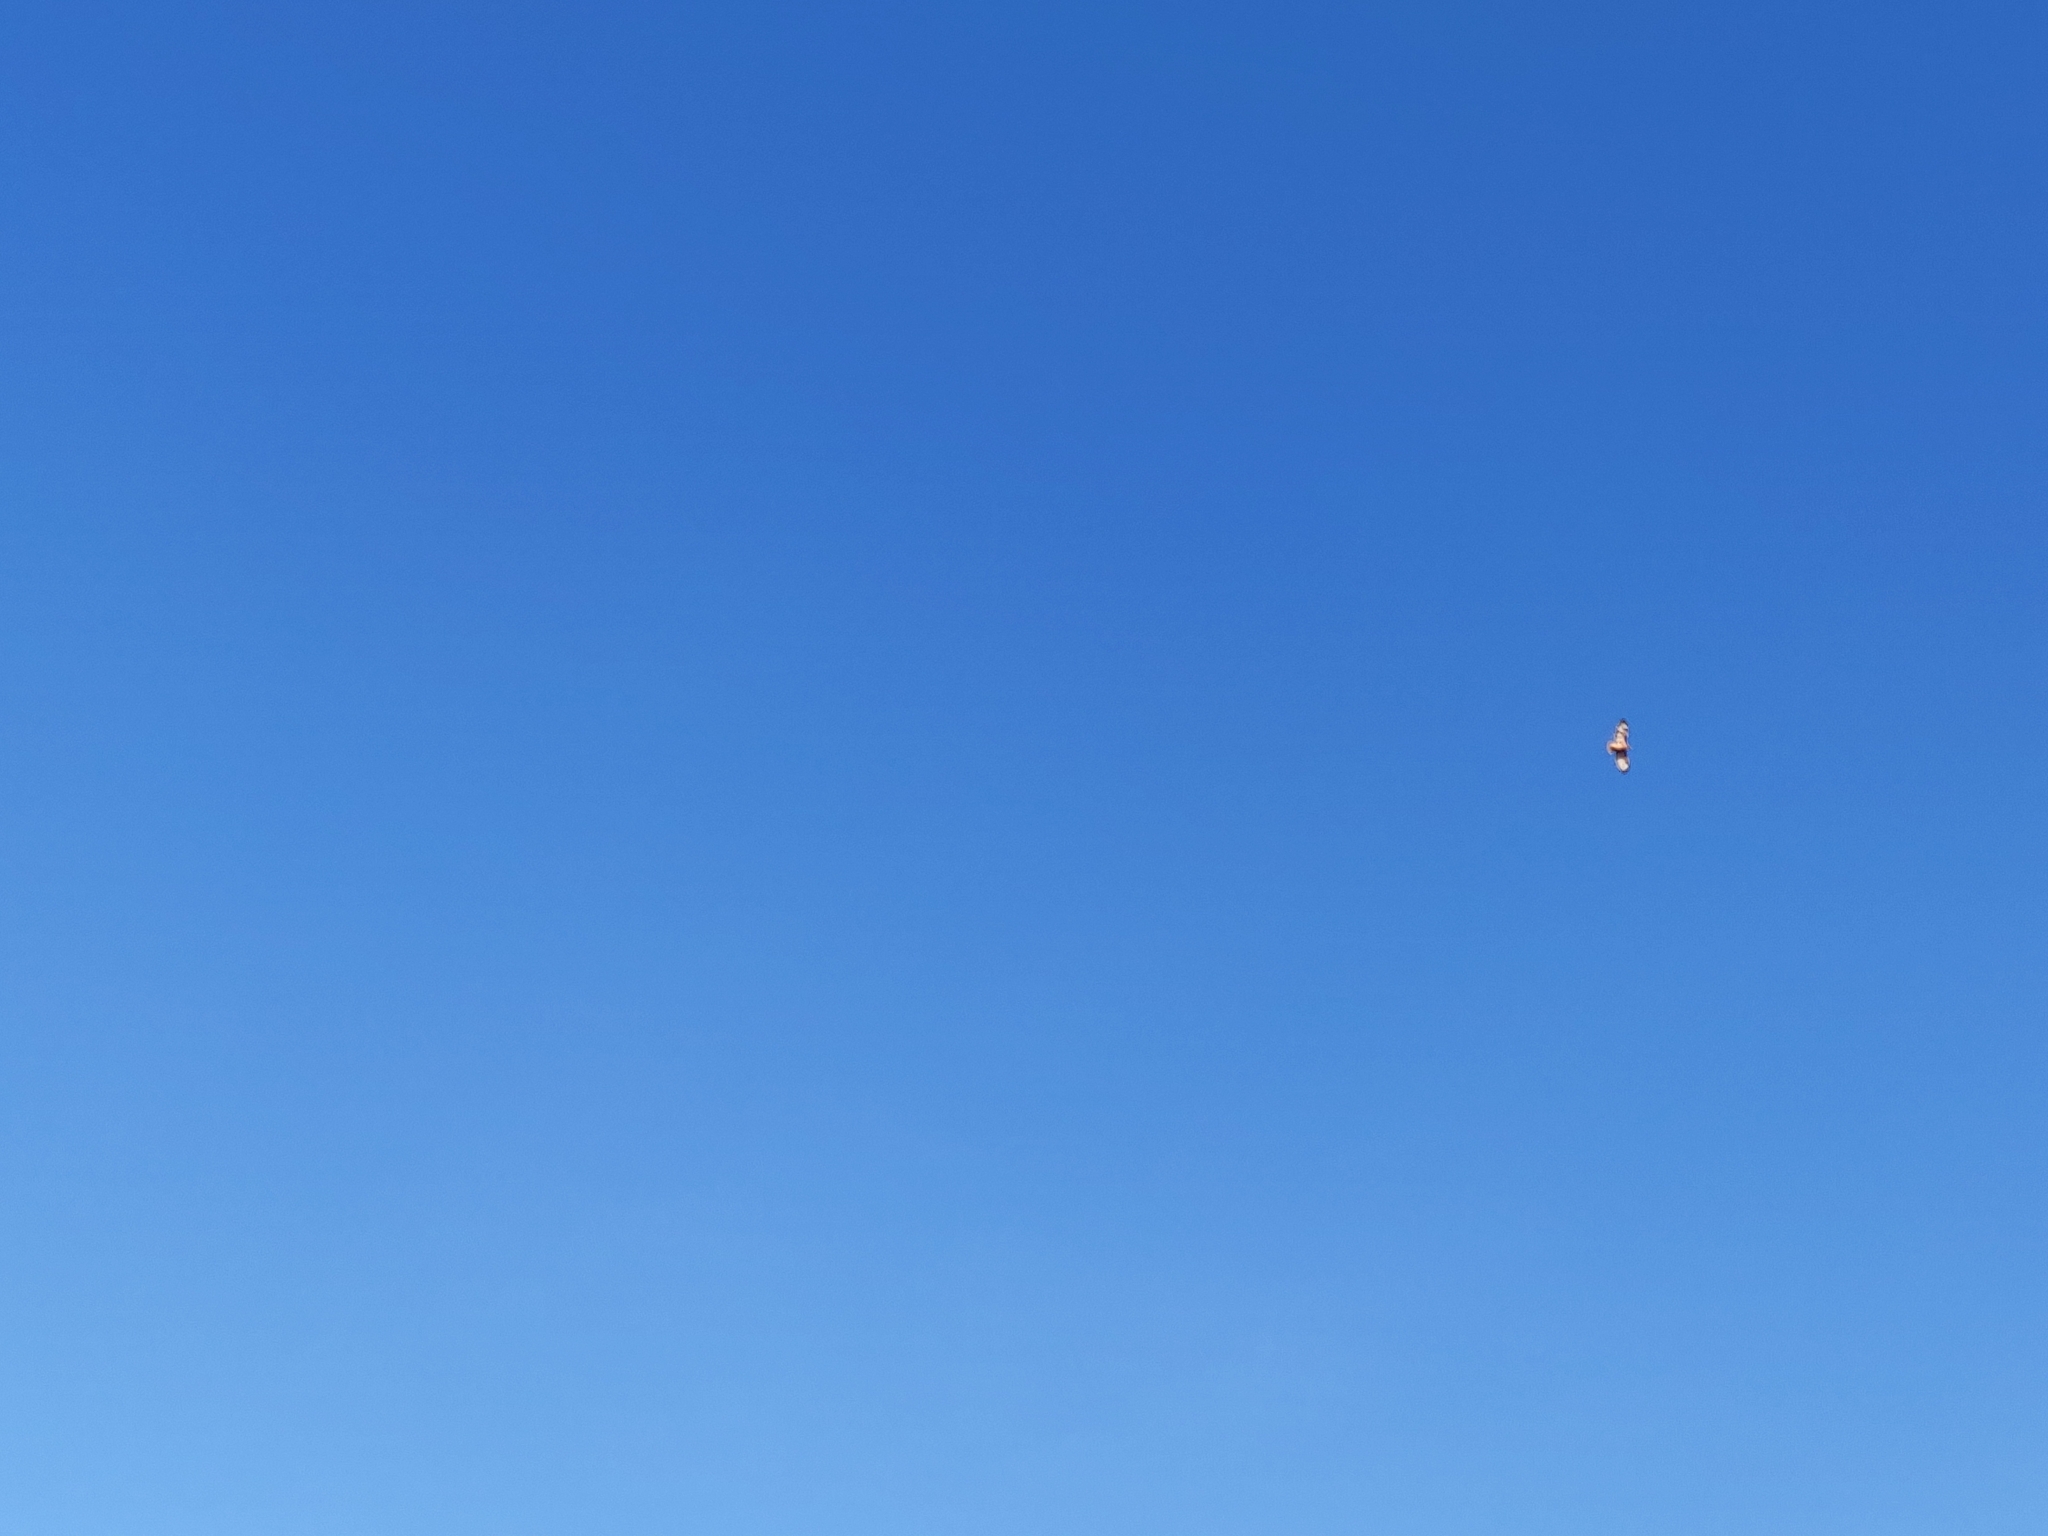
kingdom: Animalia
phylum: Chordata
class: Aves
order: Accipitriformes
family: Accipitridae
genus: Buteo
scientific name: Buteo jamaicensis
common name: Red-tailed hawk
